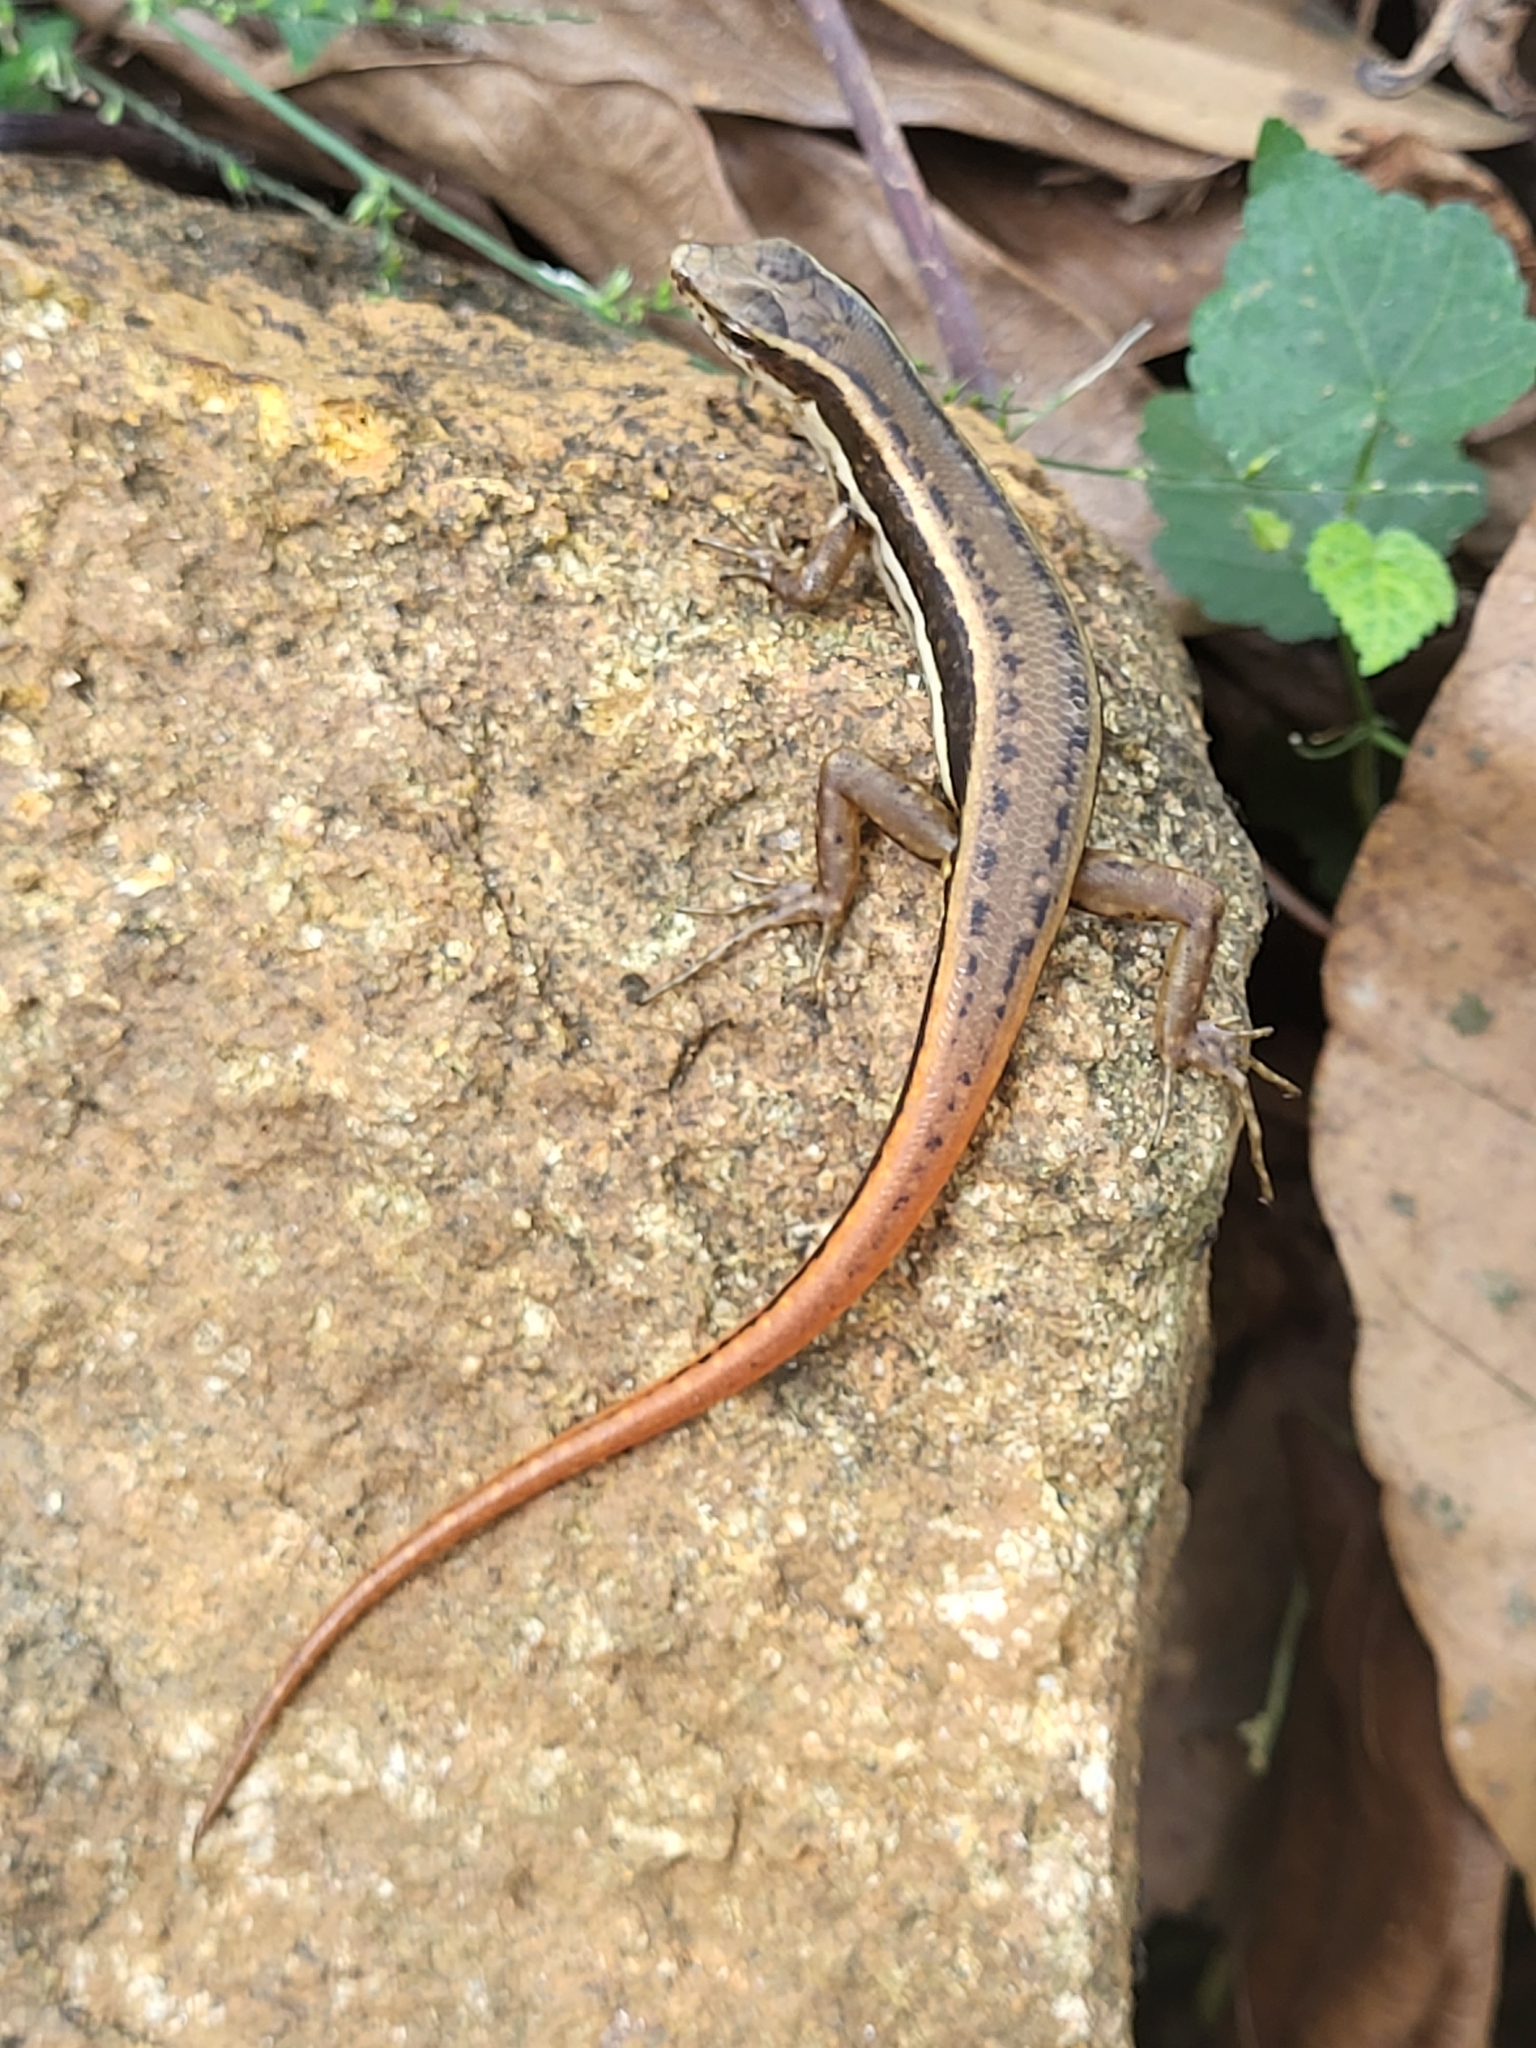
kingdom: Animalia
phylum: Chordata
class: Squamata
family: Scincidae
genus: Sphenomorphus
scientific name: Sphenomorphus dussumieri
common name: Dussumier's forest skink
